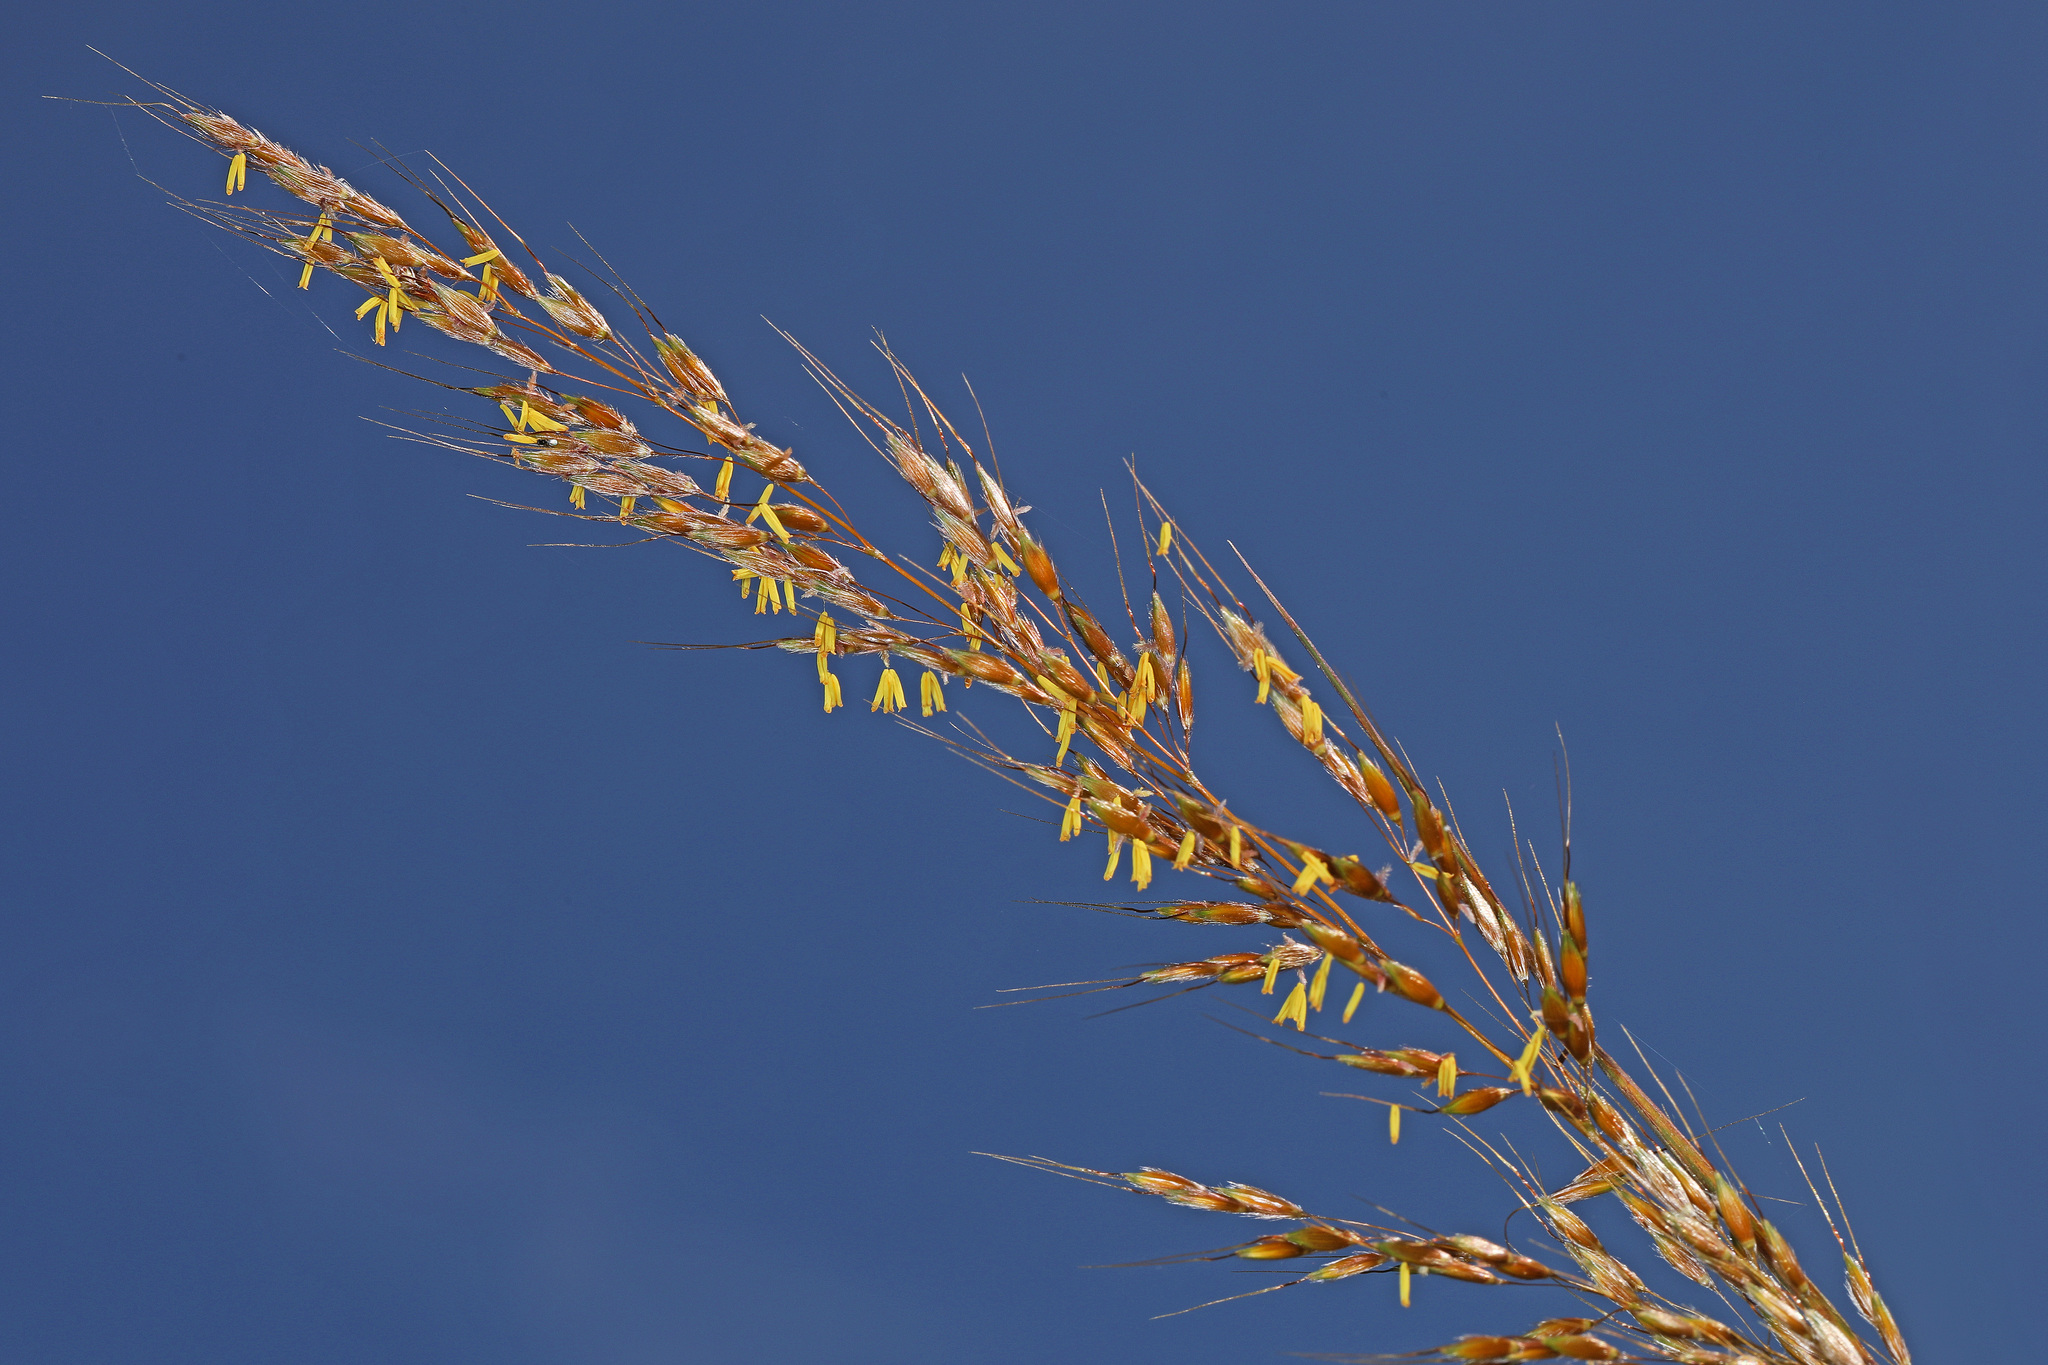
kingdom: Plantae
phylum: Tracheophyta
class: Liliopsida
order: Poales
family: Poaceae
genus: Sorghastrum
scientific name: Sorghastrum nutans
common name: Indian grass
